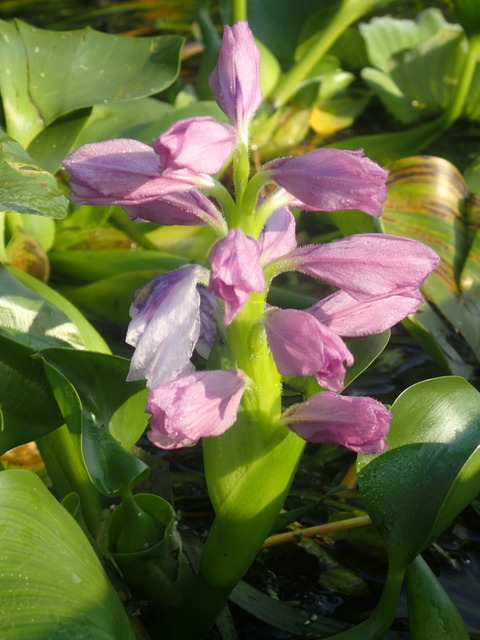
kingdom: Plantae
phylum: Tracheophyta
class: Liliopsida
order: Commelinales
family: Pontederiaceae
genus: Pontederia
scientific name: Pontederia crassipes
